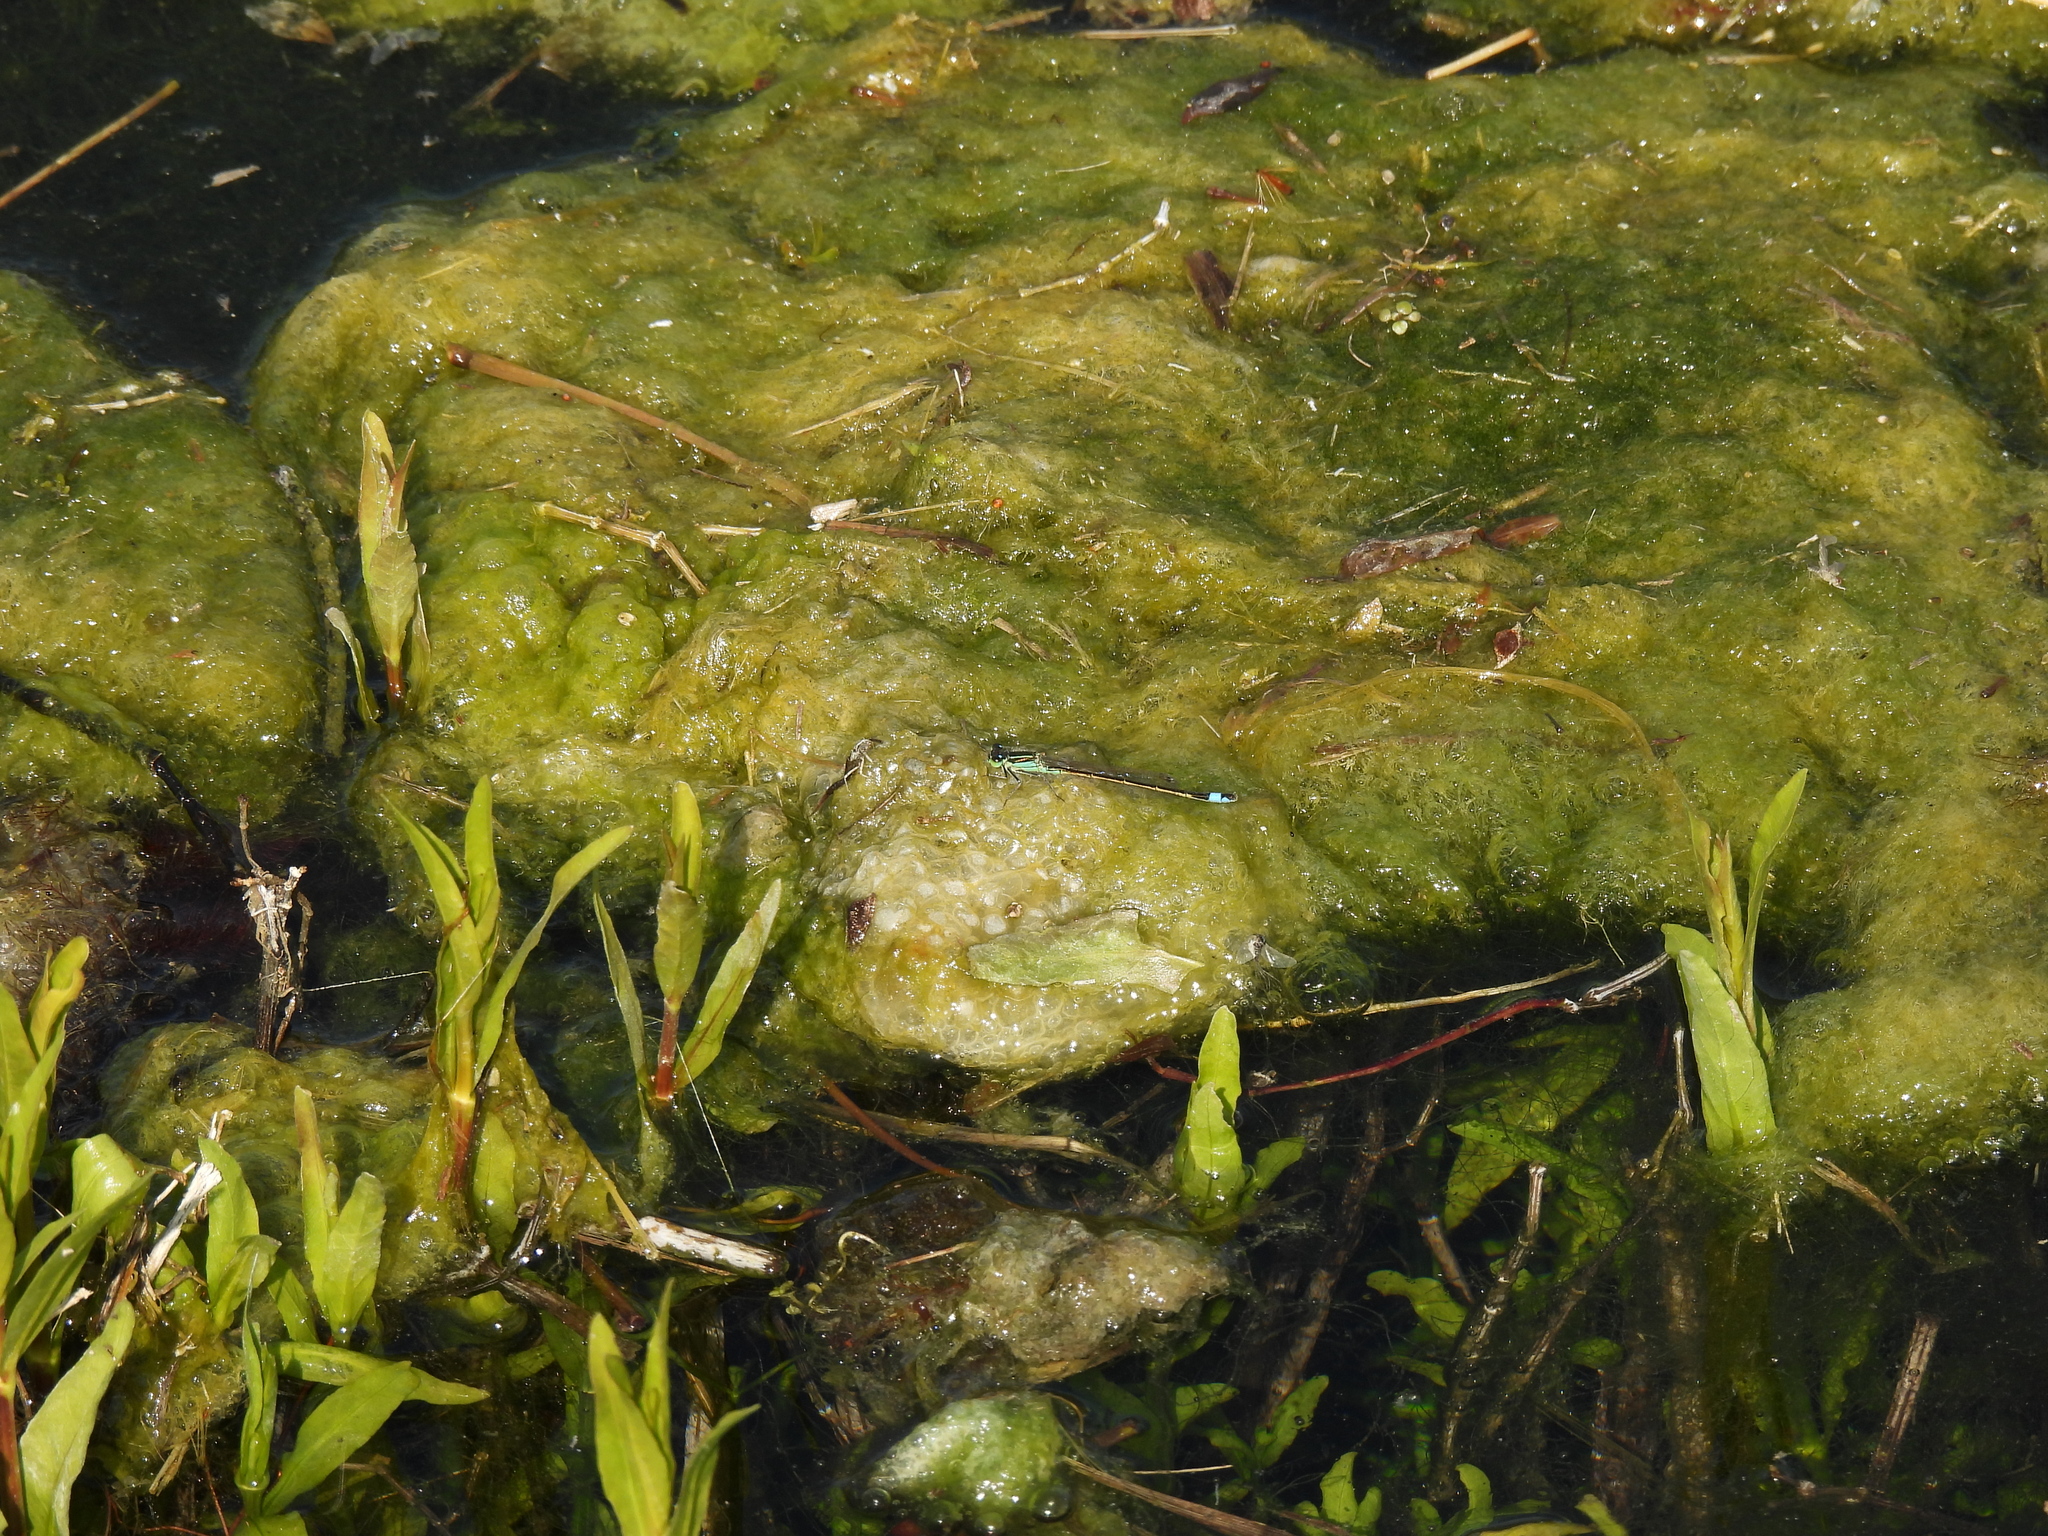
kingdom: Animalia
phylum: Arthropoda
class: Insecta
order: Odonata
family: Coenagrionidae
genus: Ischnura
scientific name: Ischnura ramburii
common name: Rambur's forktail
